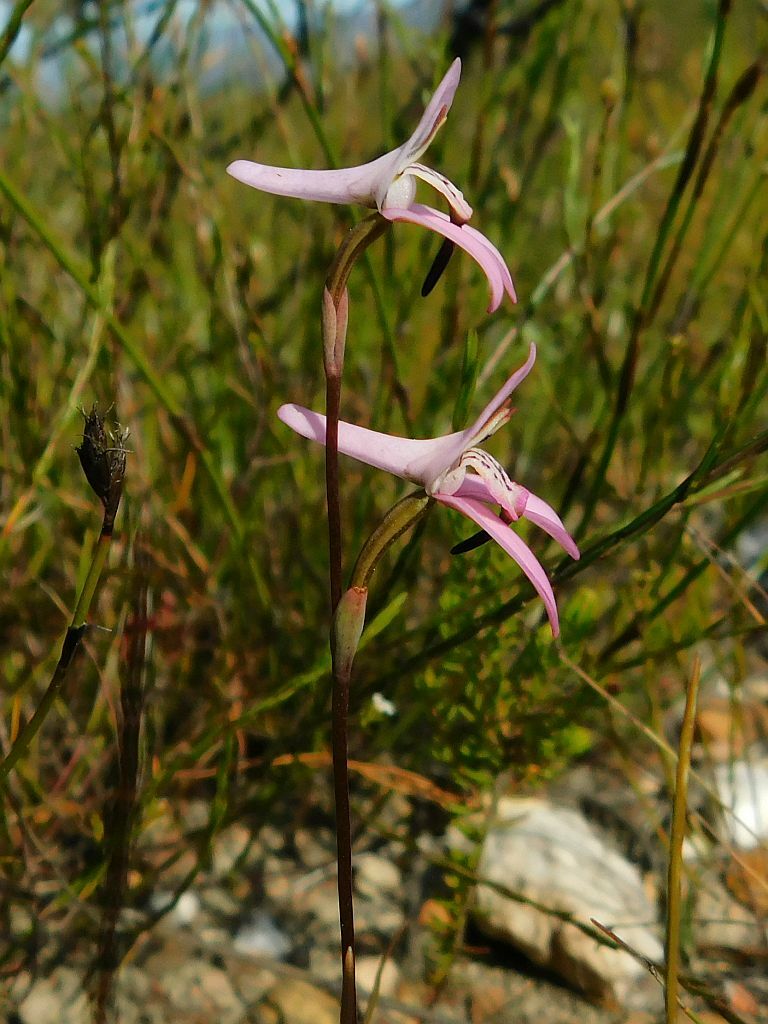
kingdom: Plantae
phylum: Tracheophyta
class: Liliopsida
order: Asparagales
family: Orchidaceae
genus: Disa
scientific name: Disa bifida
